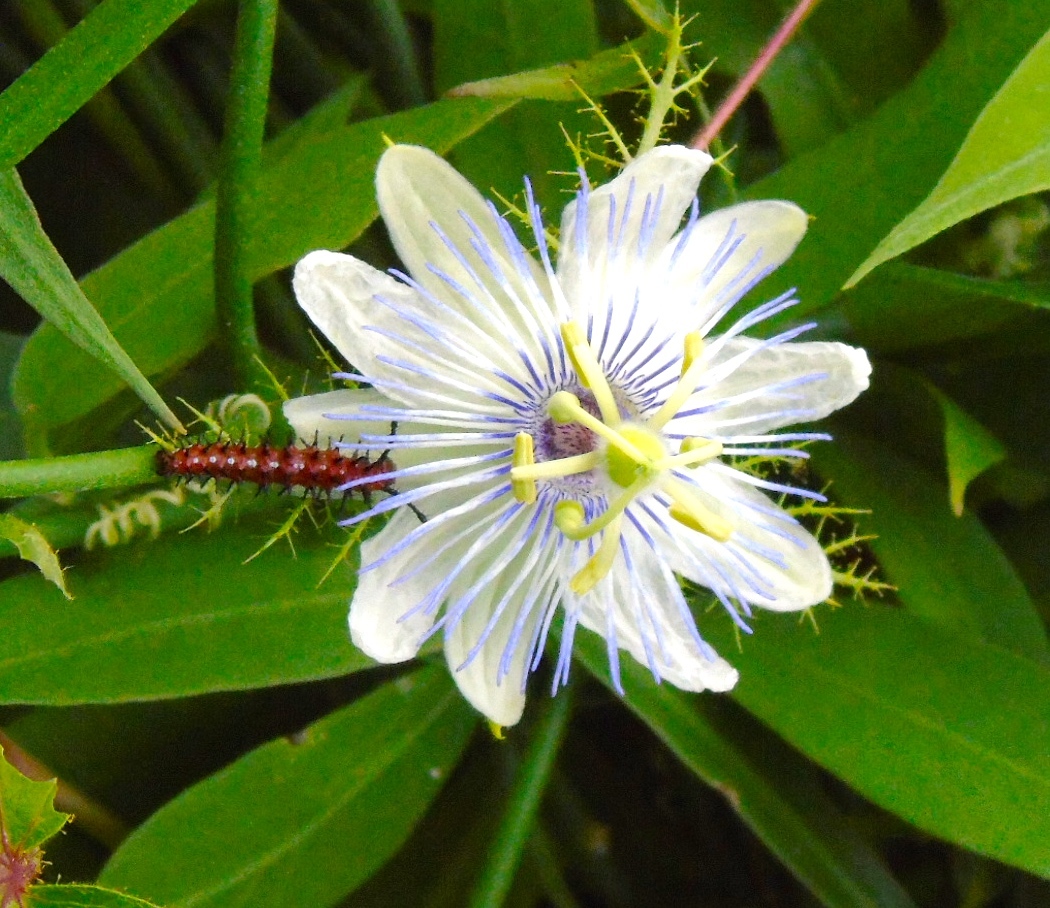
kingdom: Plantae
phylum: Tracheophyta
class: Magnoliopsida
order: Malpighiales
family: Passifloraceae
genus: Passiflora
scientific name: Passiflora foetida
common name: Fetid passionflower
